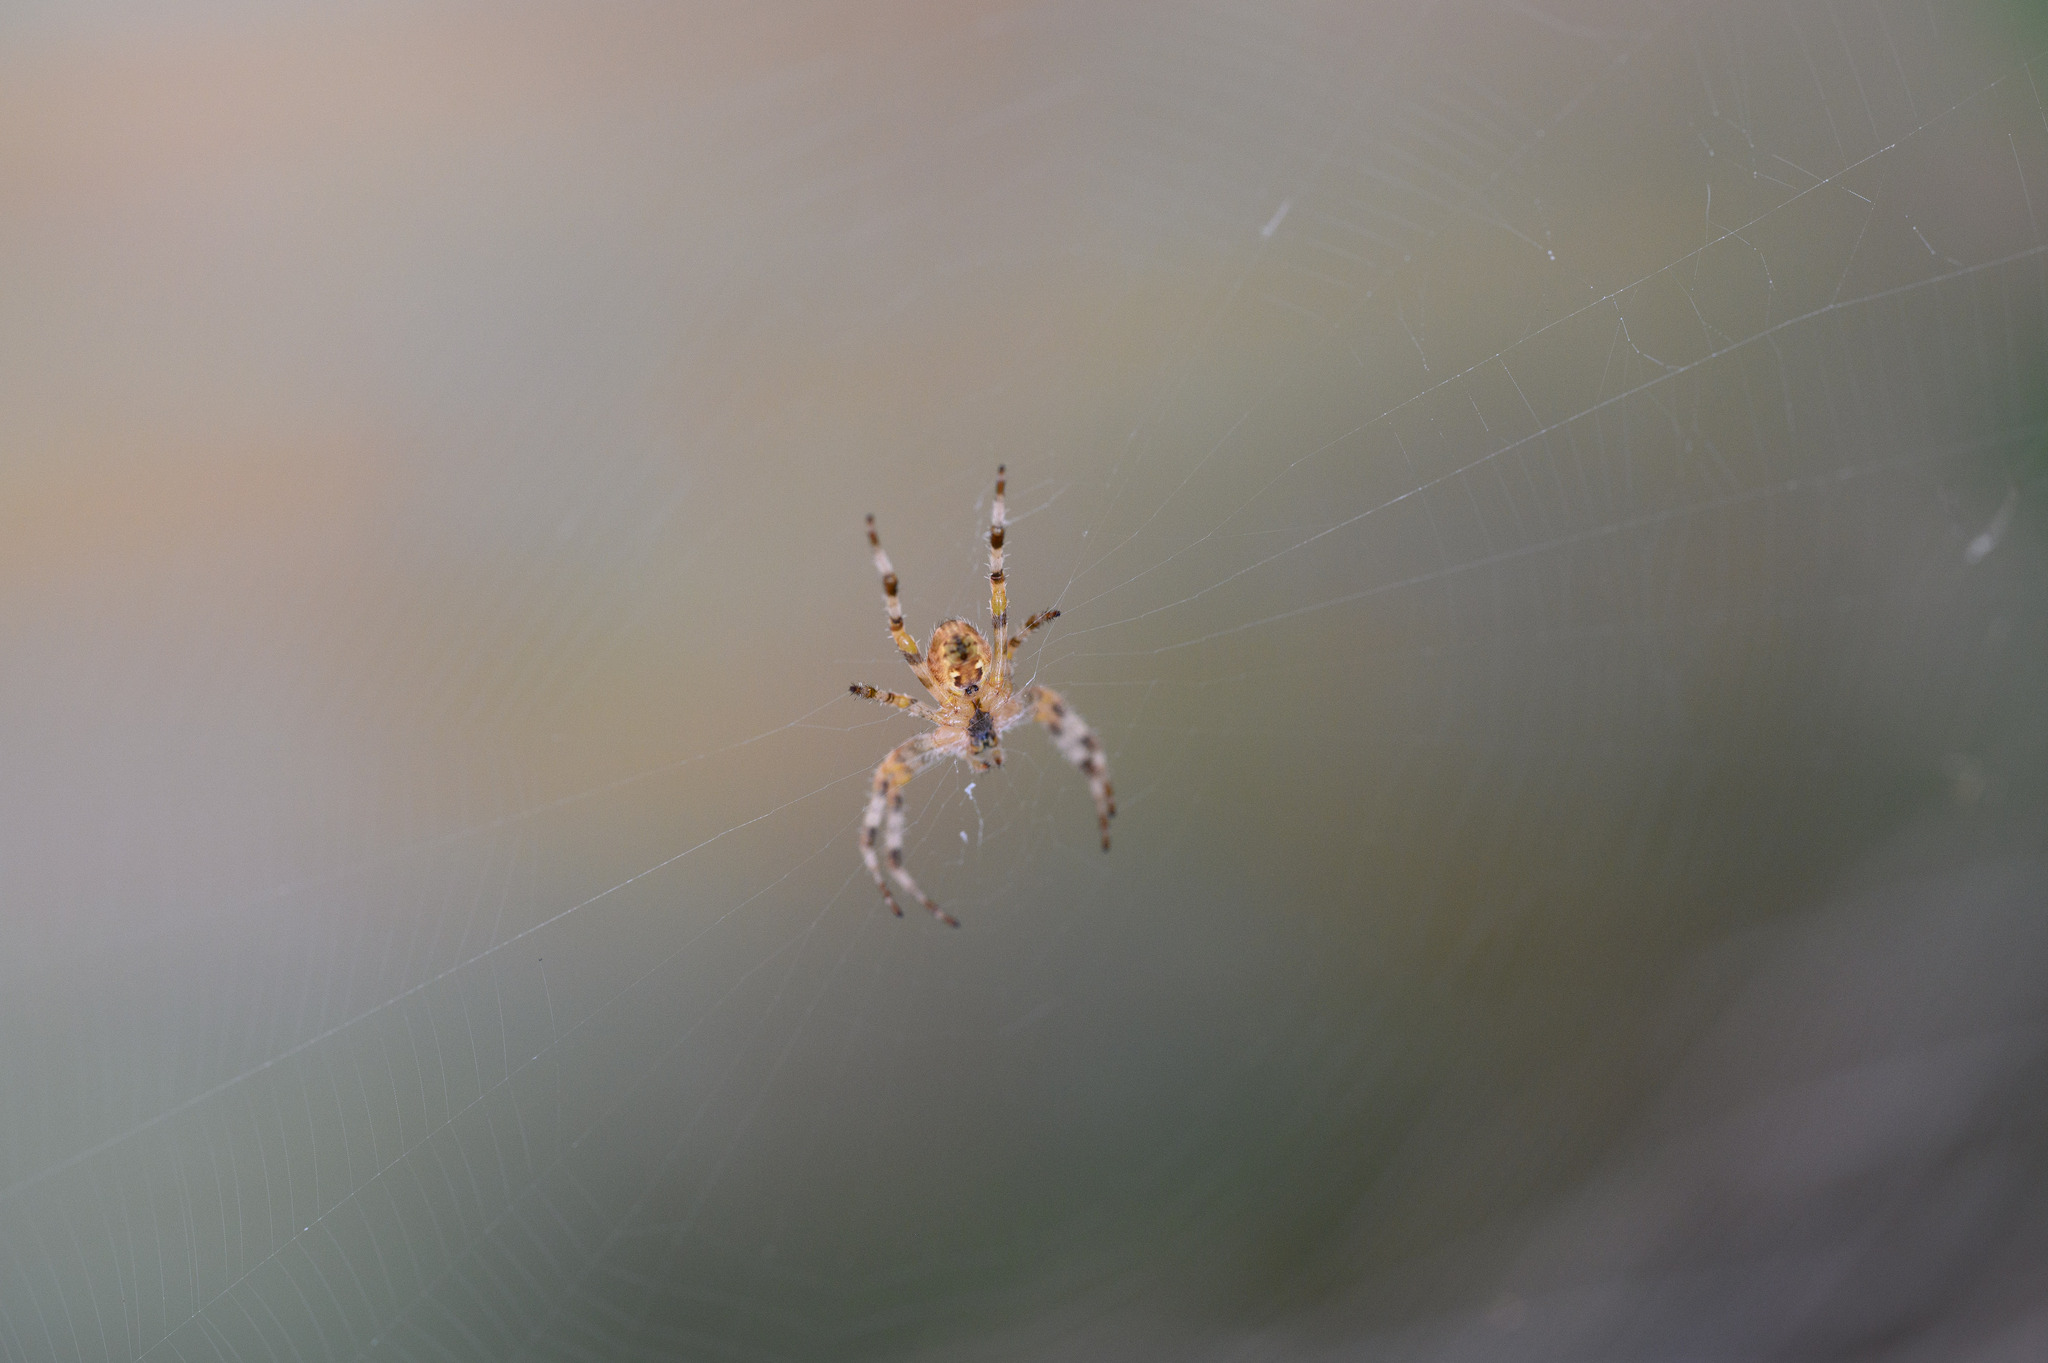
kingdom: Animalia
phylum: Arthropoda
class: Arachnida
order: Araneae
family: Araneidae
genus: Araneus
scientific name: Araneus diadematus
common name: Cross orbweaver
